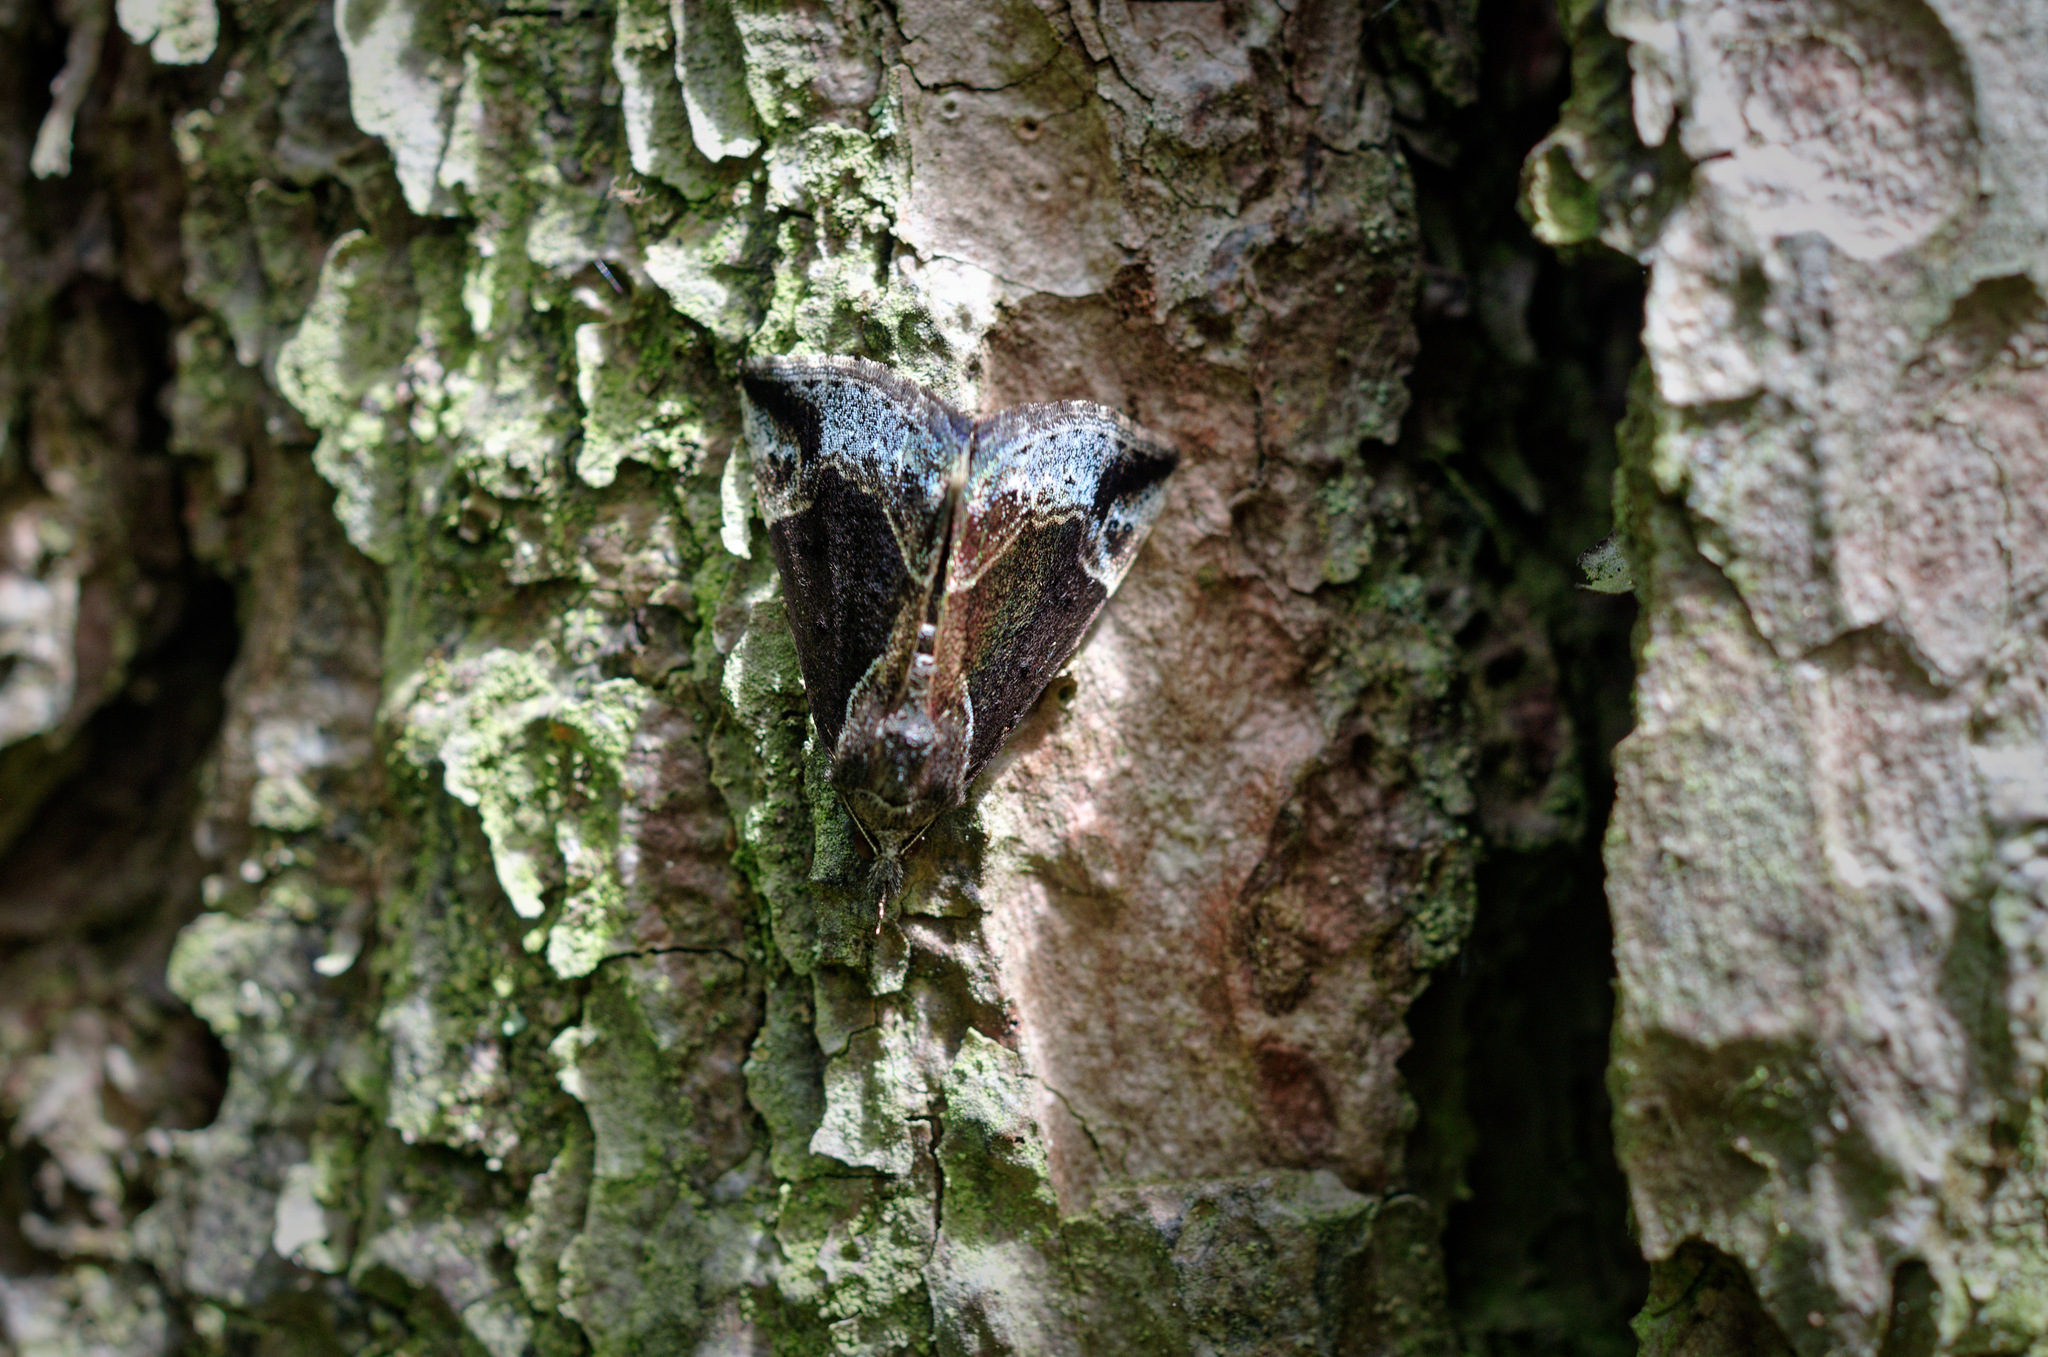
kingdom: Animalia
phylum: Arthropoda
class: Insecta
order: Lepidoptera
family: Erebidae
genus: Hypena
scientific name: Hypena crassalis
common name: Beautiful snout
